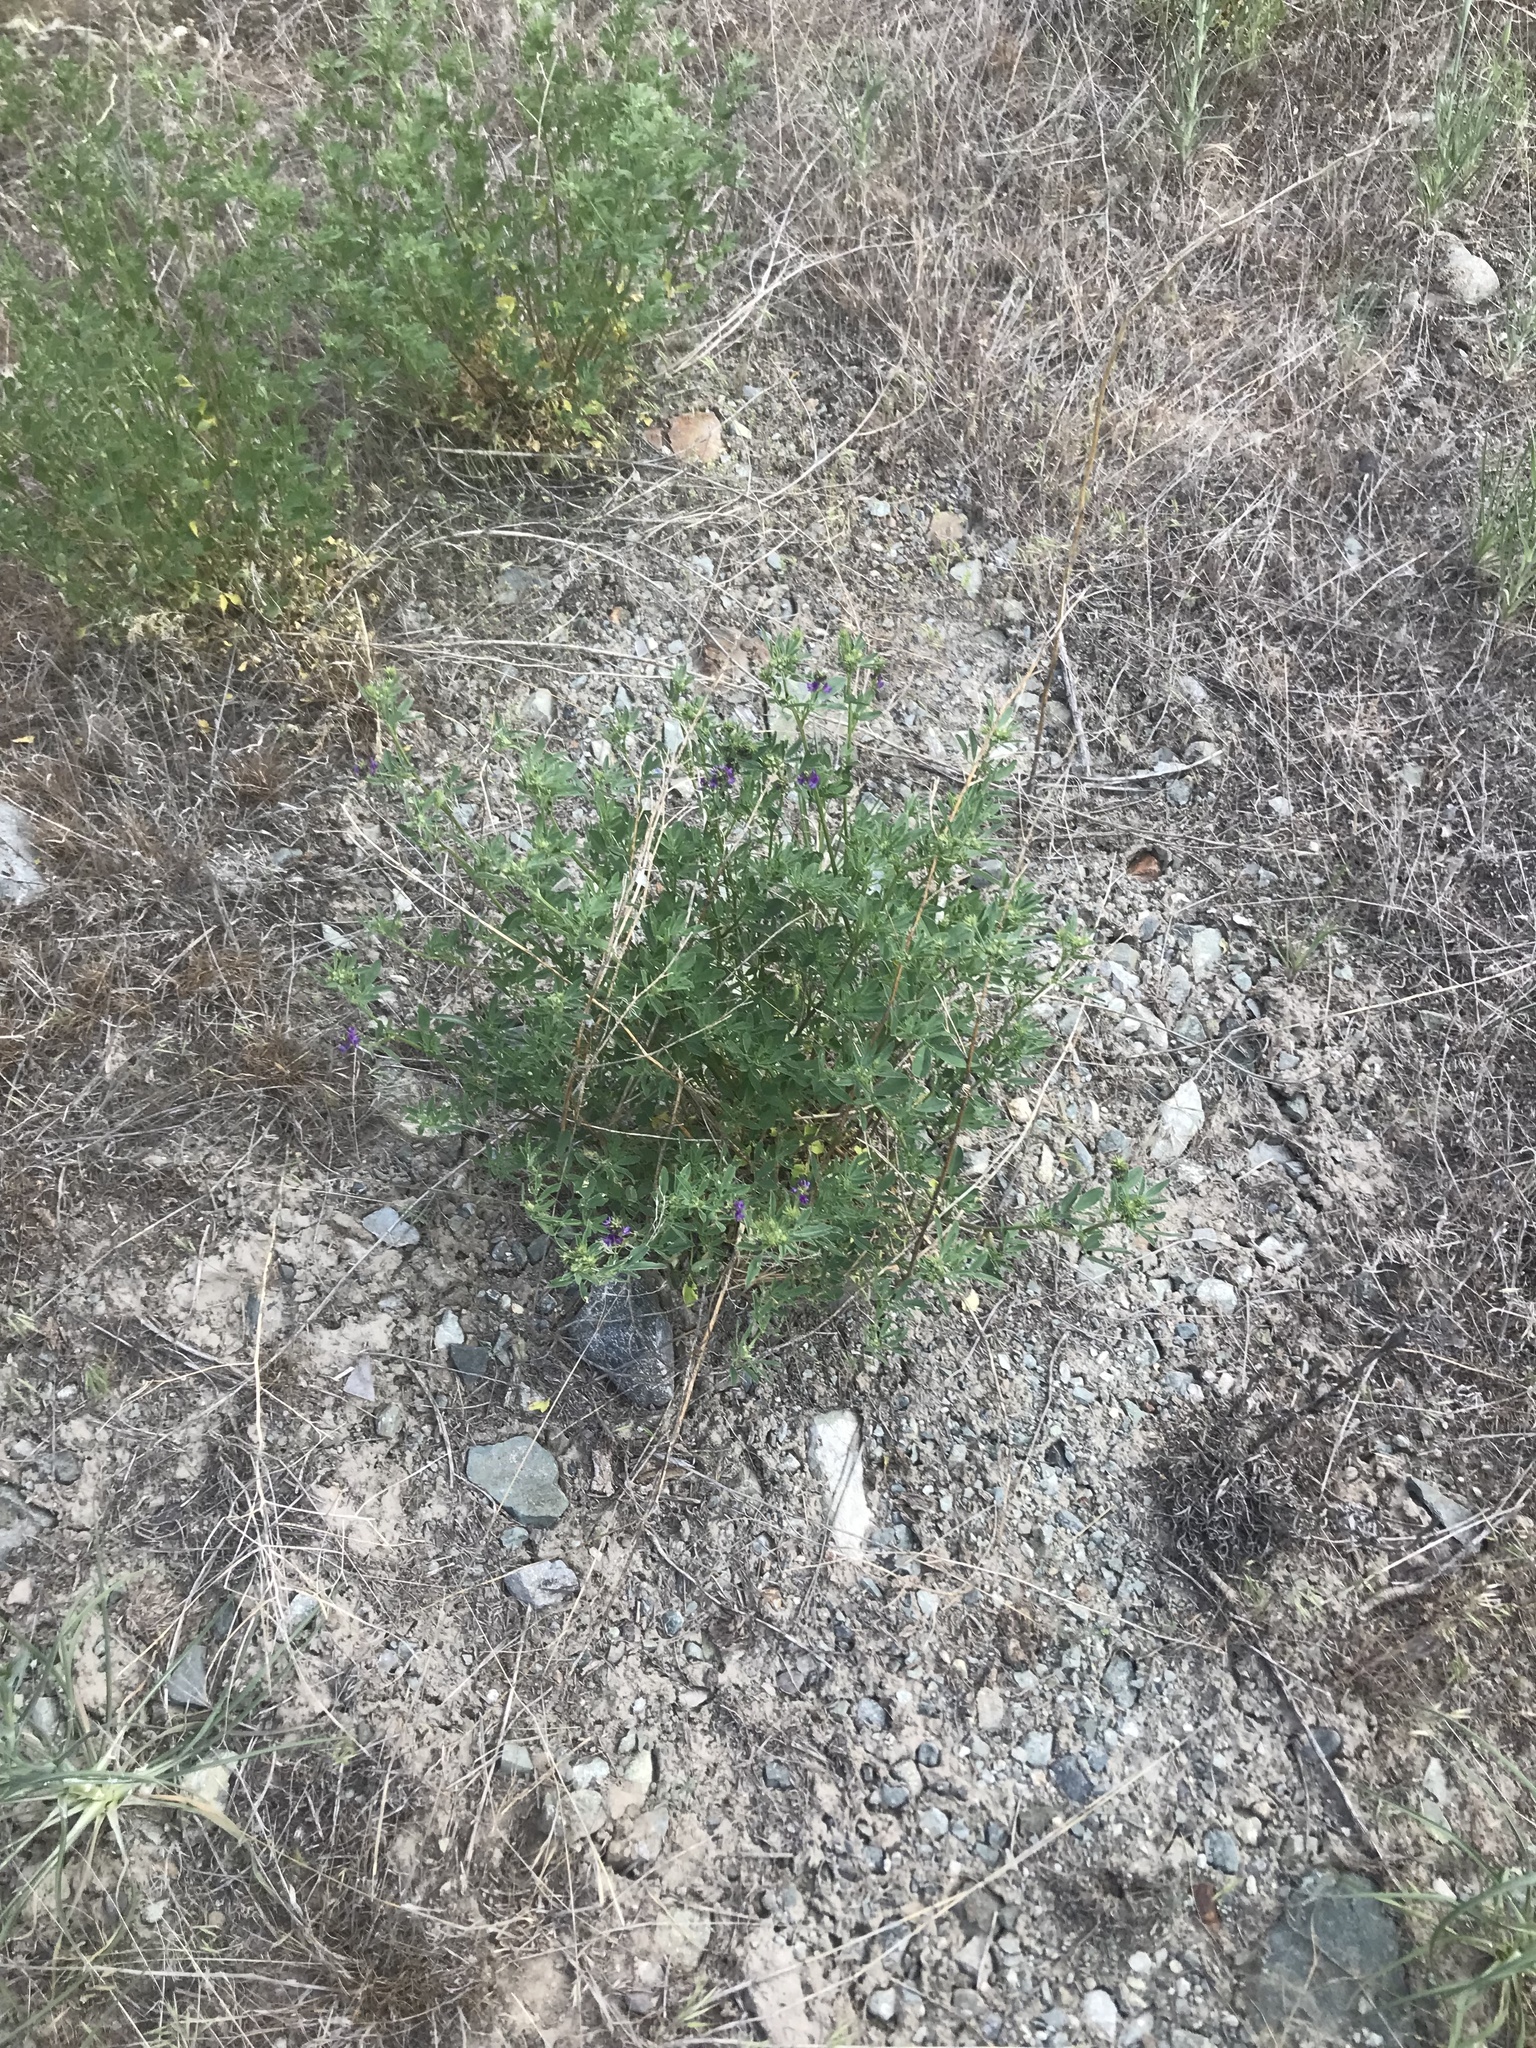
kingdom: Plantae
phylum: Tracheophyta
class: Magnoliopsida
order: Fabales
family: Fabaceae
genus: Medicago
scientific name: Medicago sativa
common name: Alfalfa
